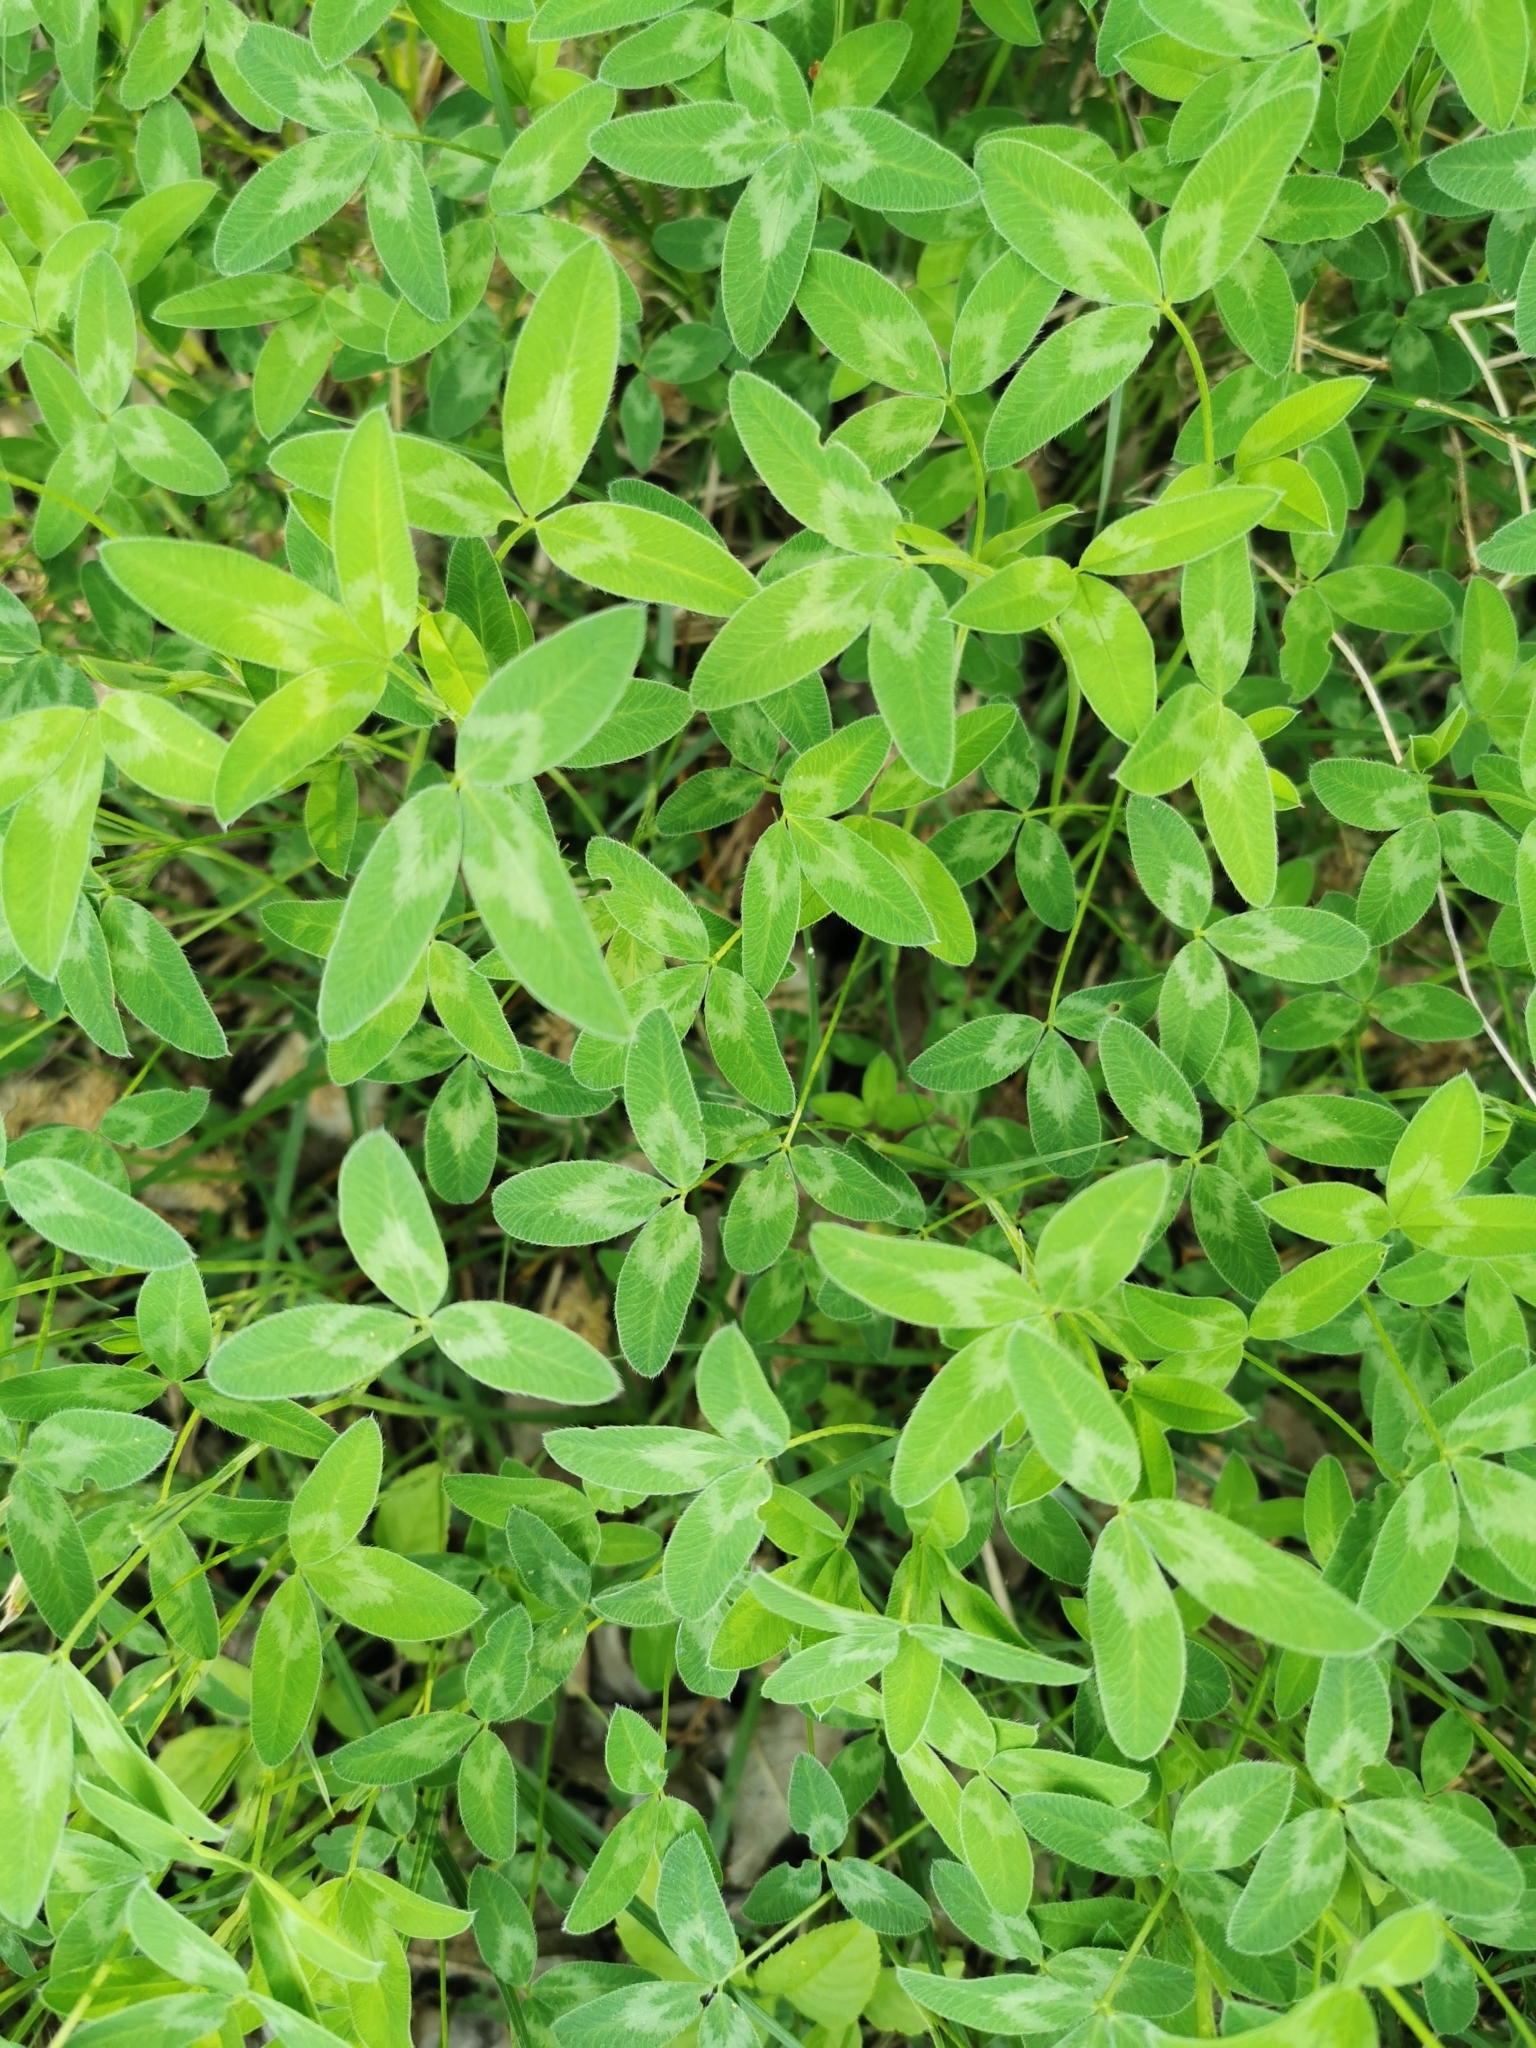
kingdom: Plantae
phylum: Tracheophyta
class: Magnoliopsida
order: Fabales
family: Fabaceae
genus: Trifolium
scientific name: Trifolium medium
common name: Zigzag clover
